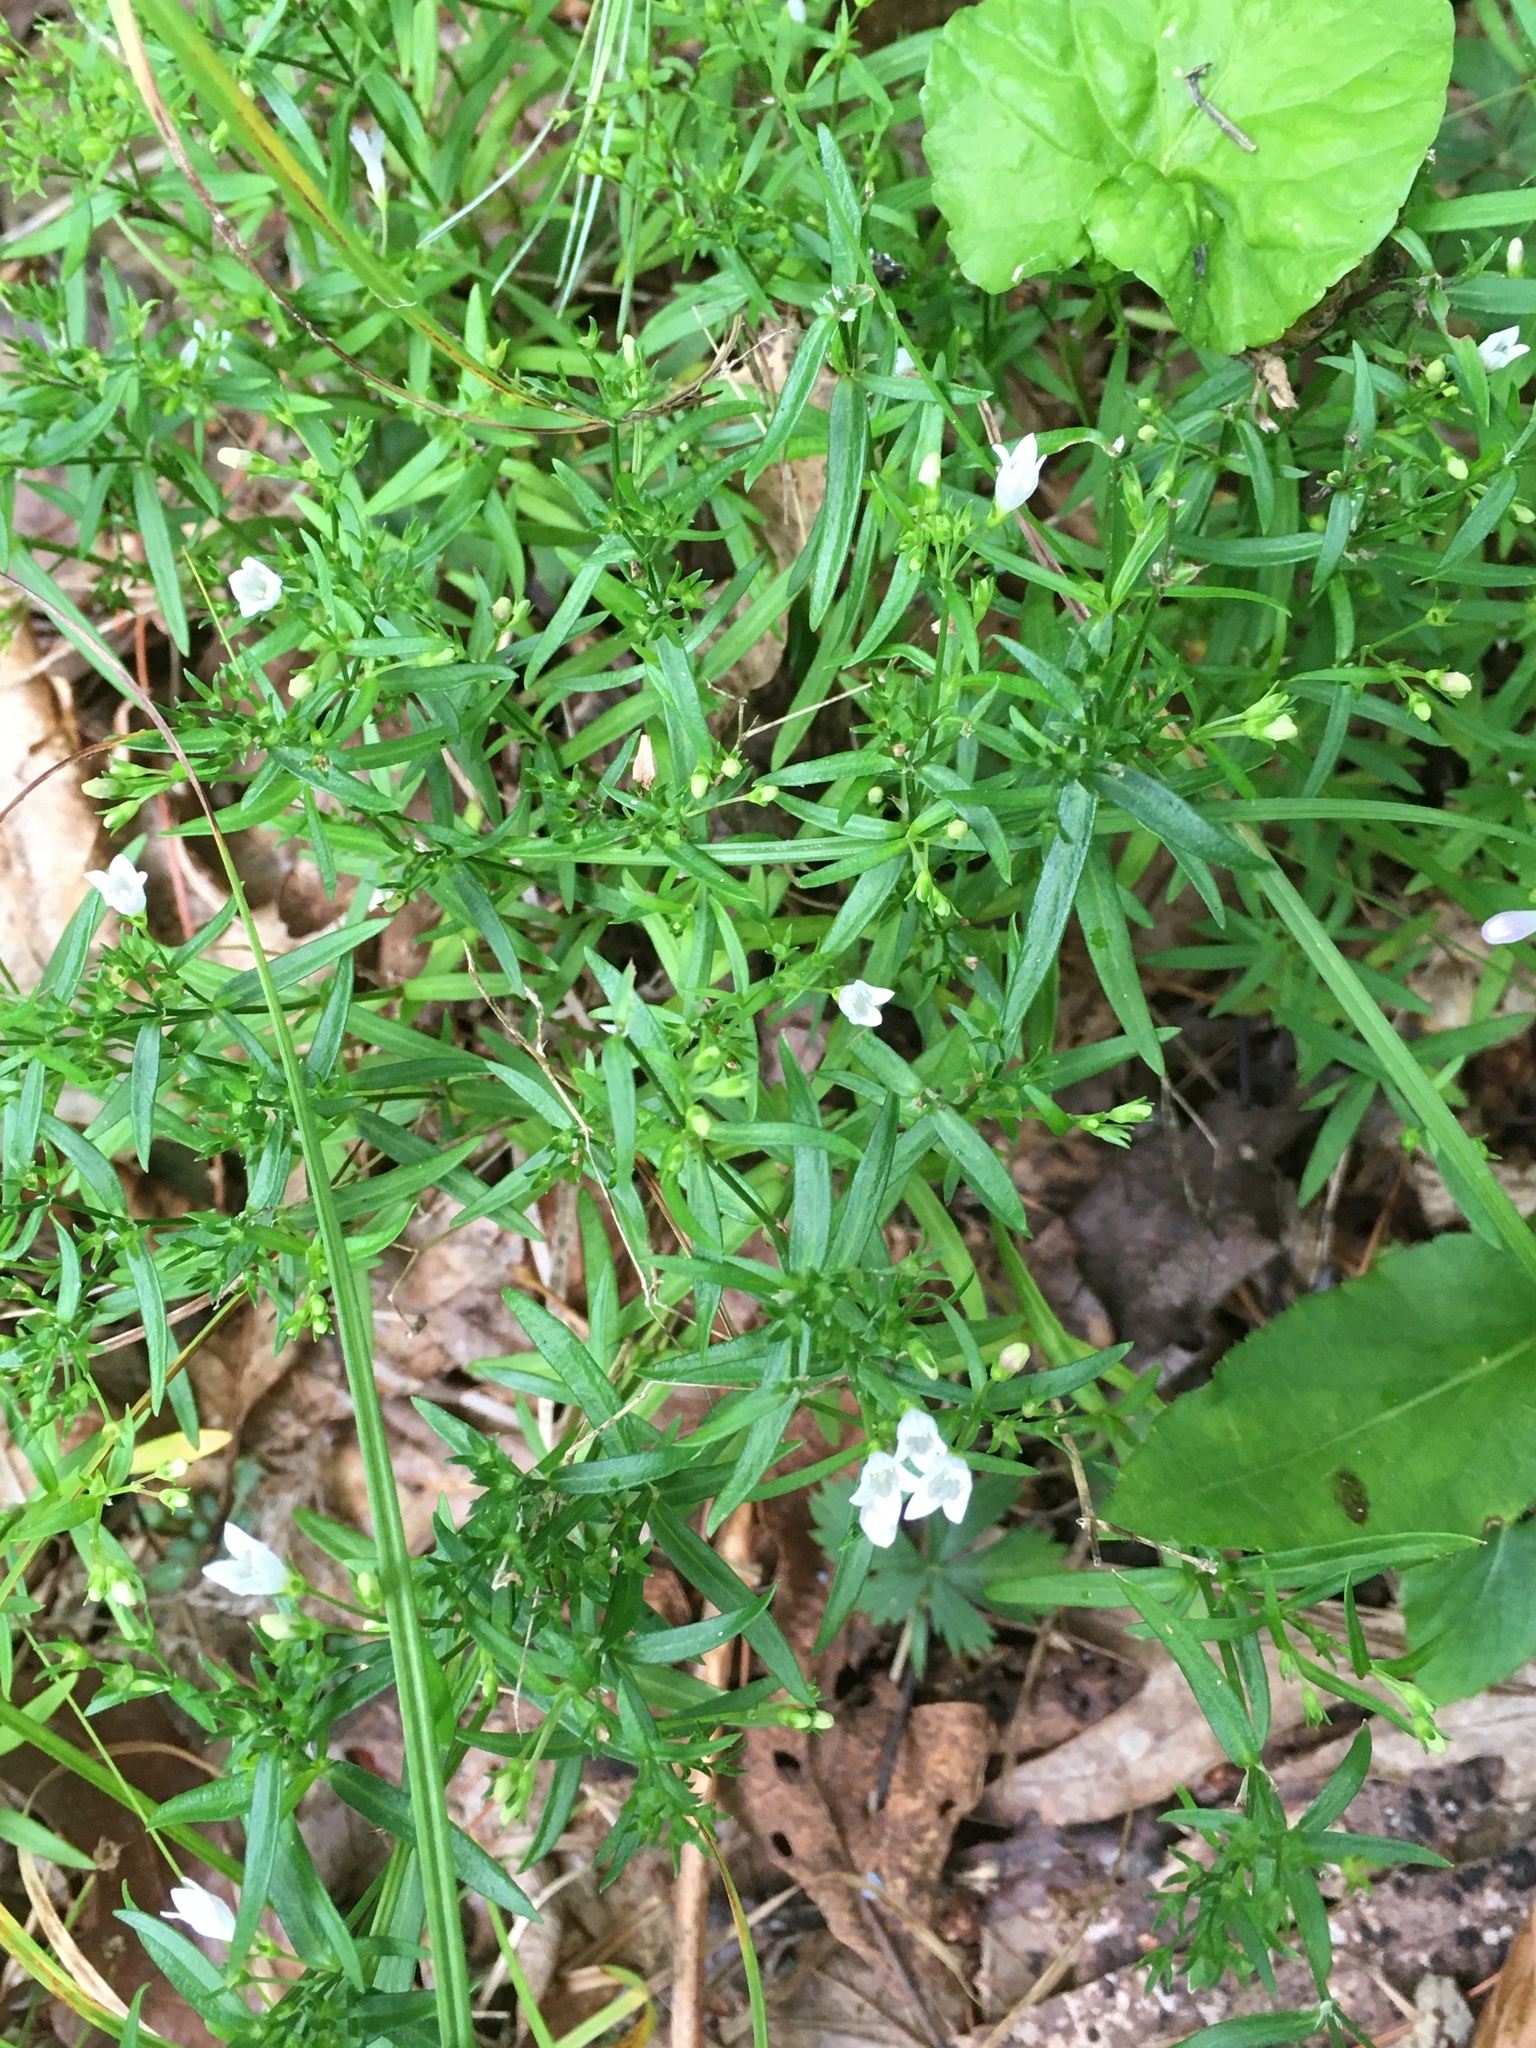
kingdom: Plantae
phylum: Tracheophyta
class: Magnoliopsida
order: Gentianales
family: Rubiaceae
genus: Houstonia
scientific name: Houstonia longifolia
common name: Long-leaved bluets
